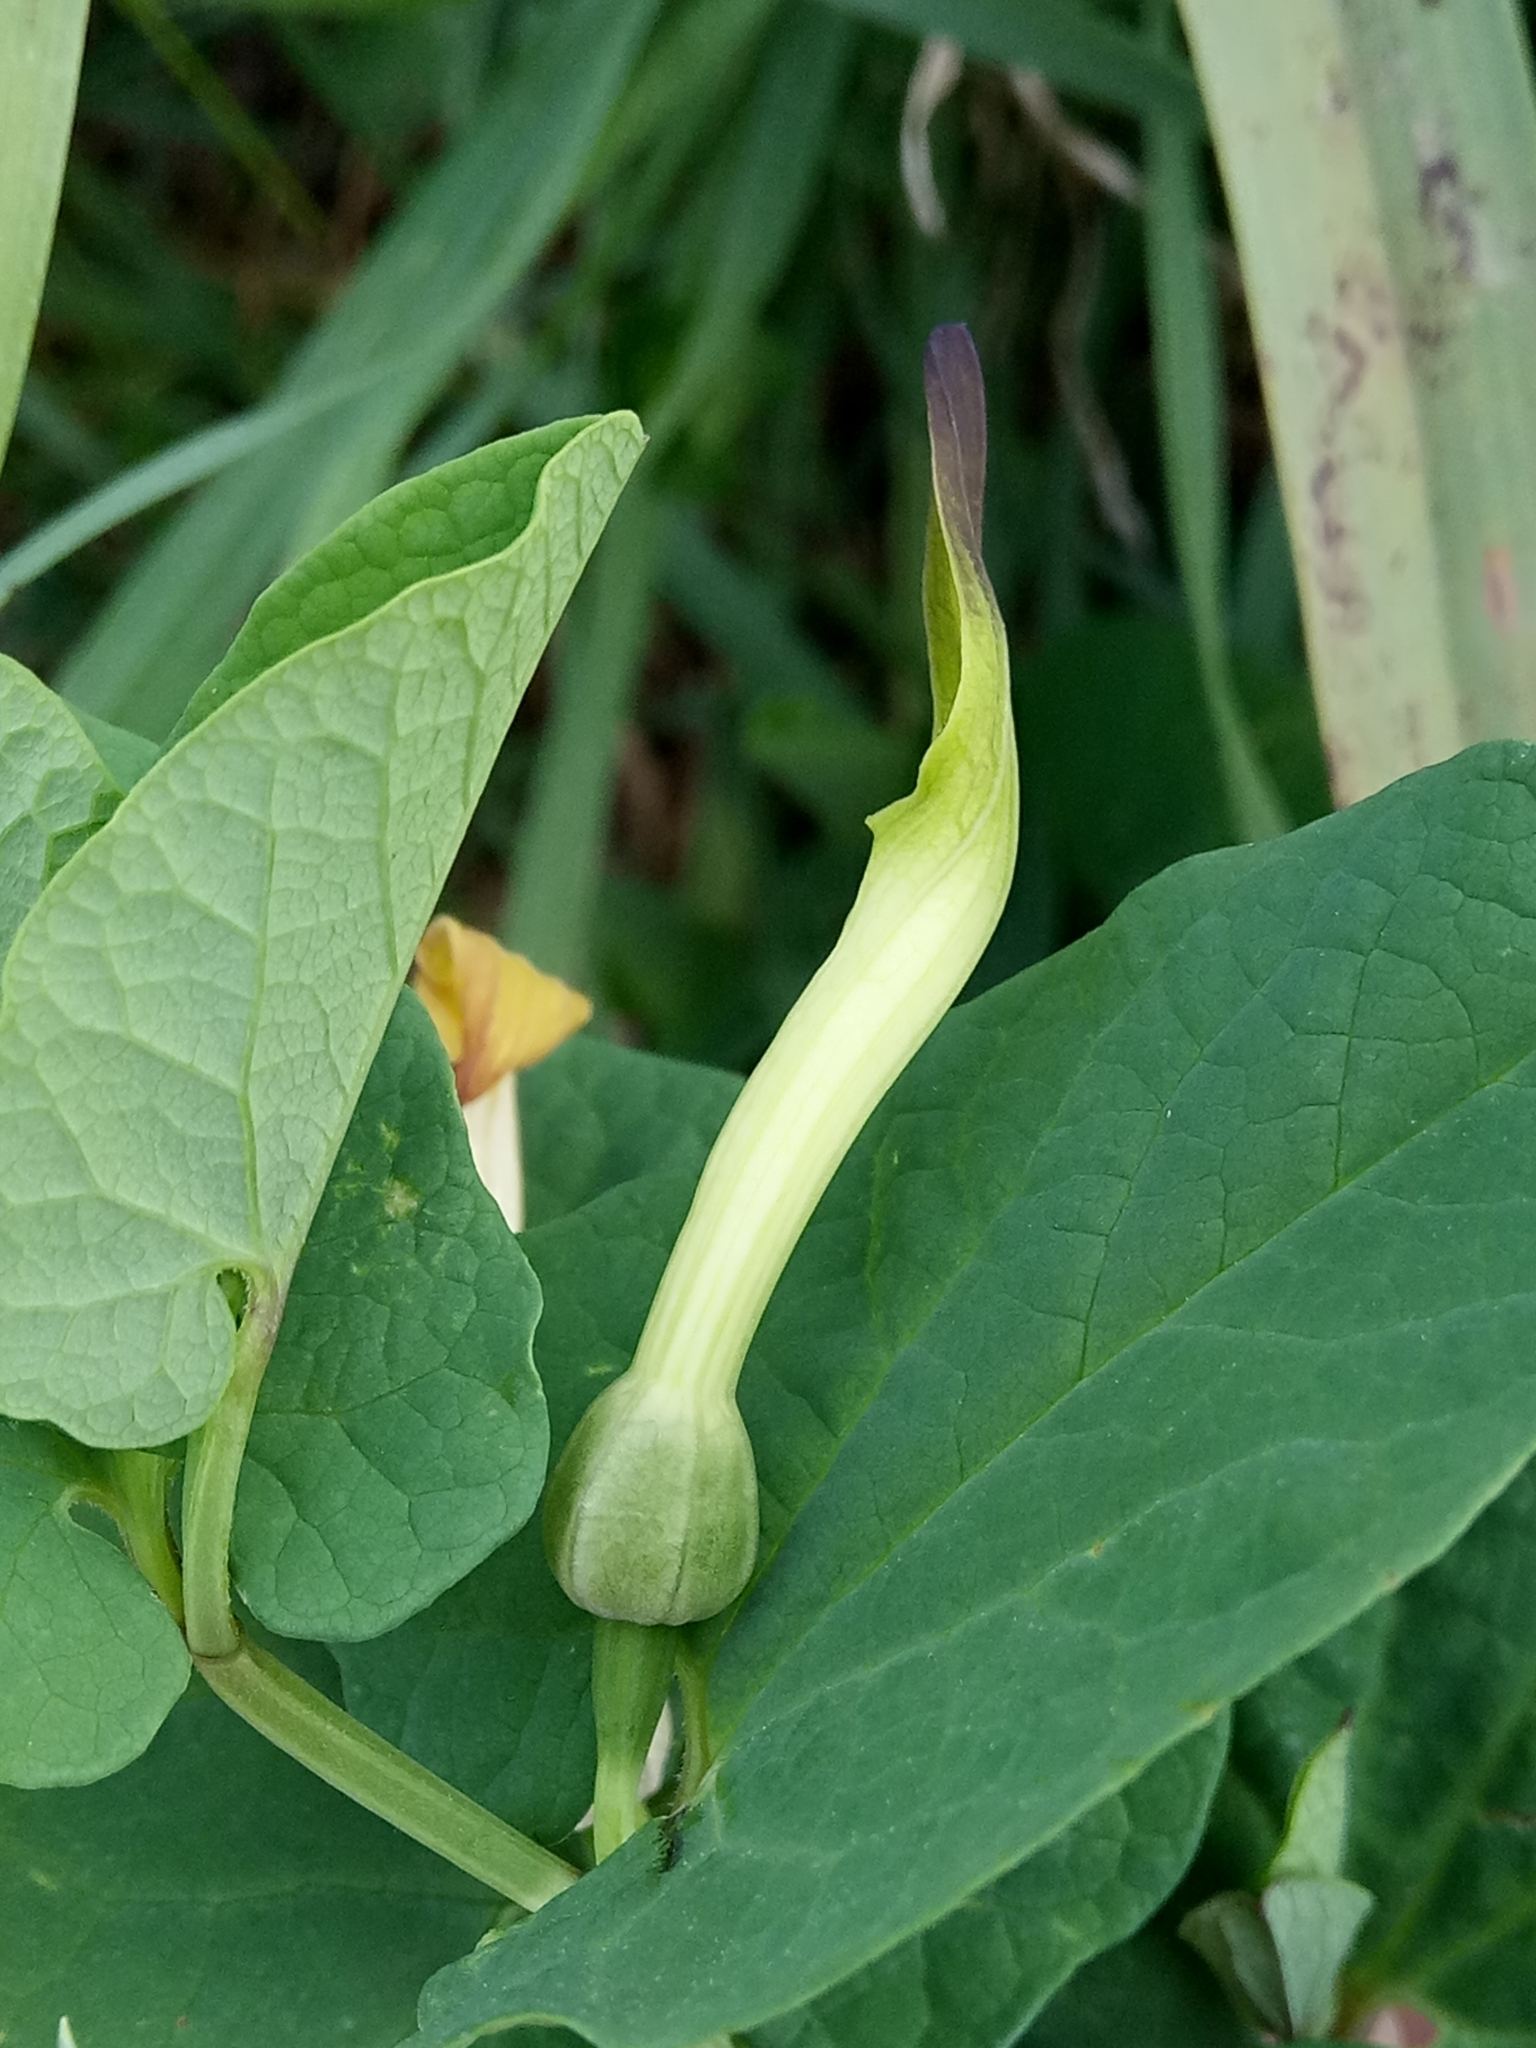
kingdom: Plantae
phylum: Tracheophyta
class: Magnoliopsida
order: Piperales
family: Aristolochiaceae
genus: Aristolochia
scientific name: Aristolochia navicularis
